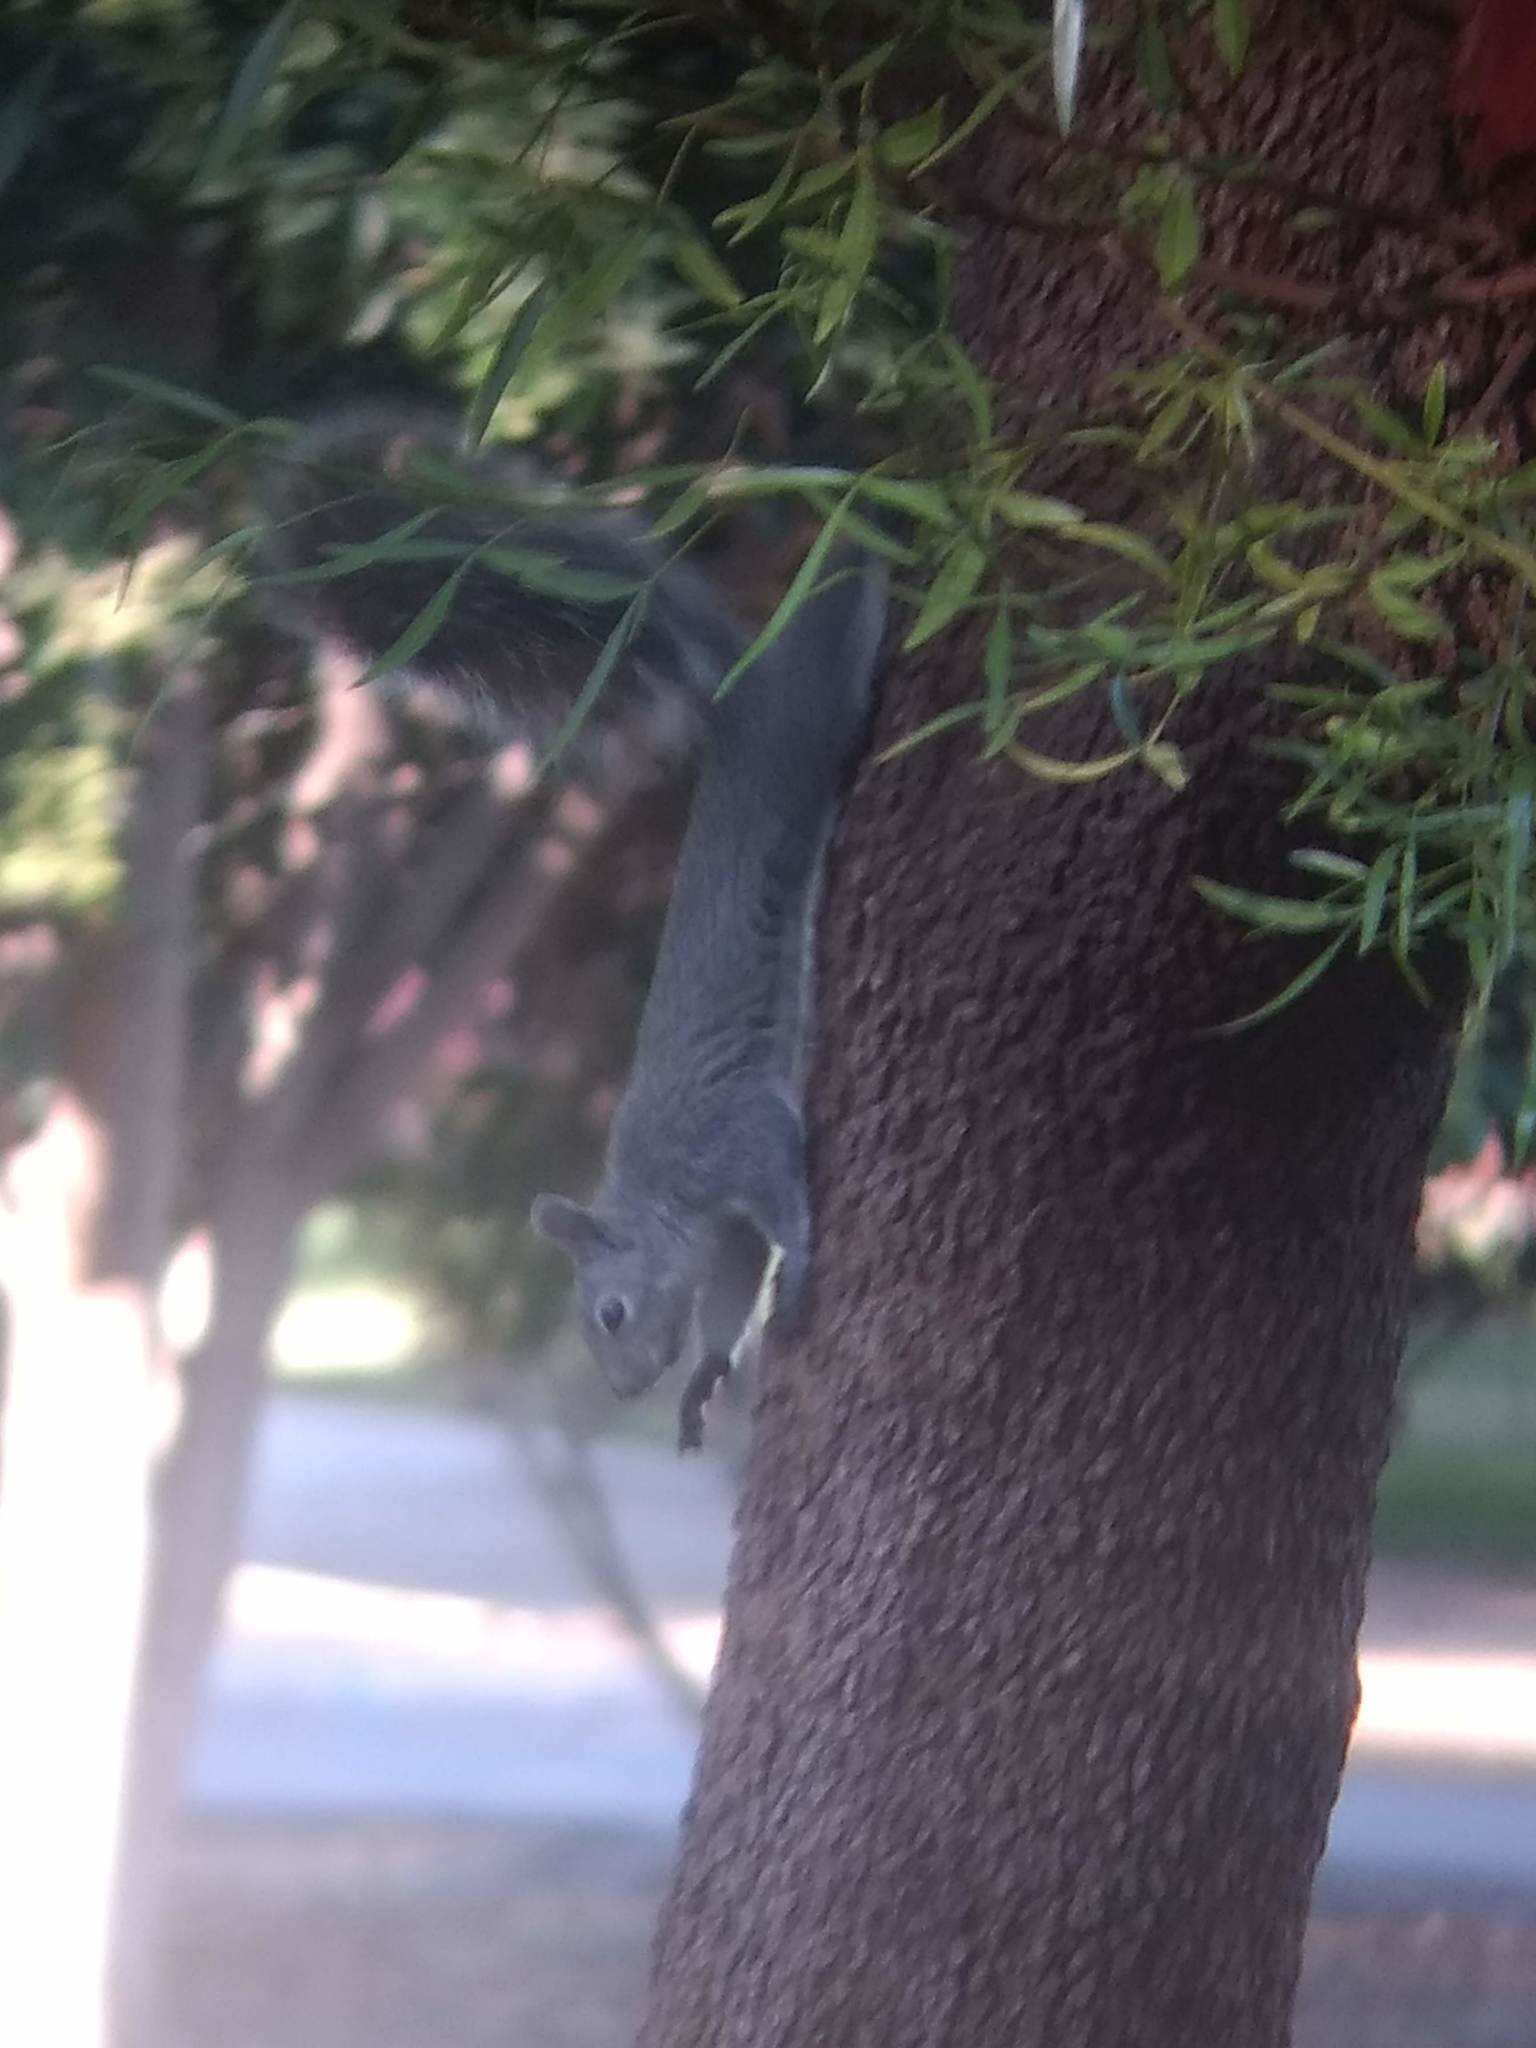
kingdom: Animalia
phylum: Chordata
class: Mammalia
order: Rodentia
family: Sciuridae
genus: Sciurus
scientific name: Sciurus griseus
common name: Western gray squirrel
